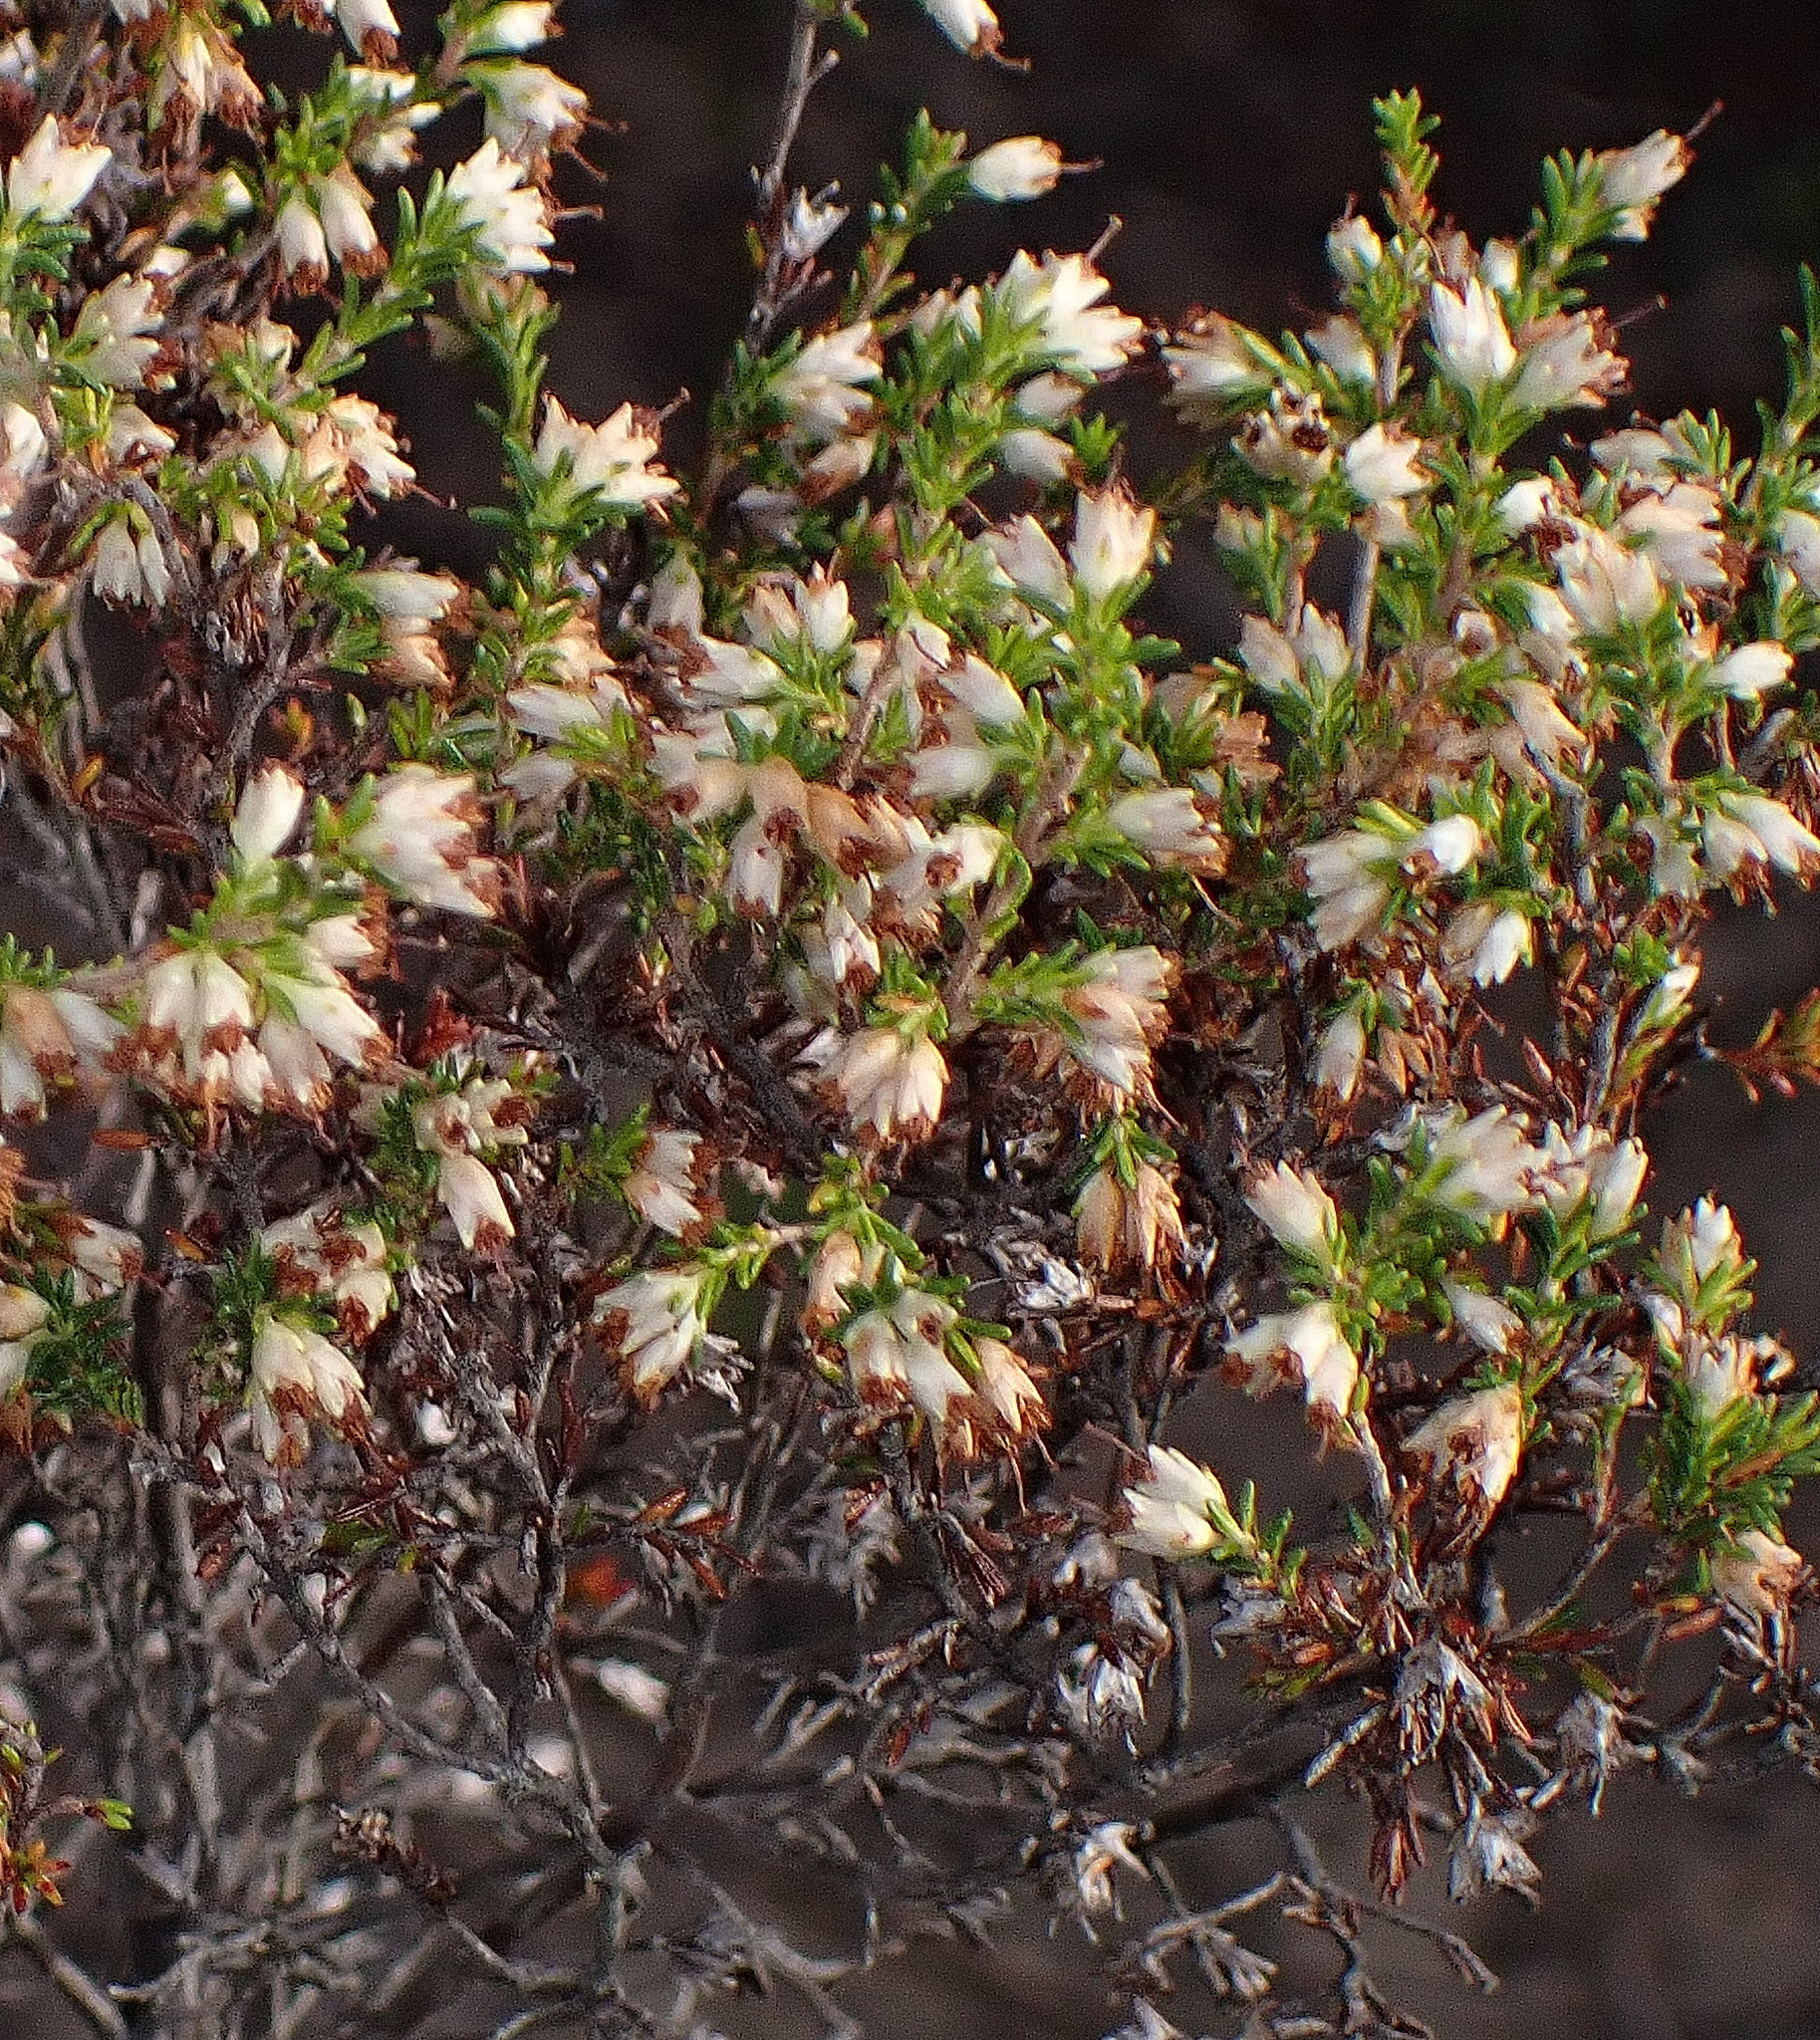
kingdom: Plantae
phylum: Tracheophyta
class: Magnoliopsida
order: Ericales
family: Ericaceae
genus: Erica
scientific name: Erica lasciva
